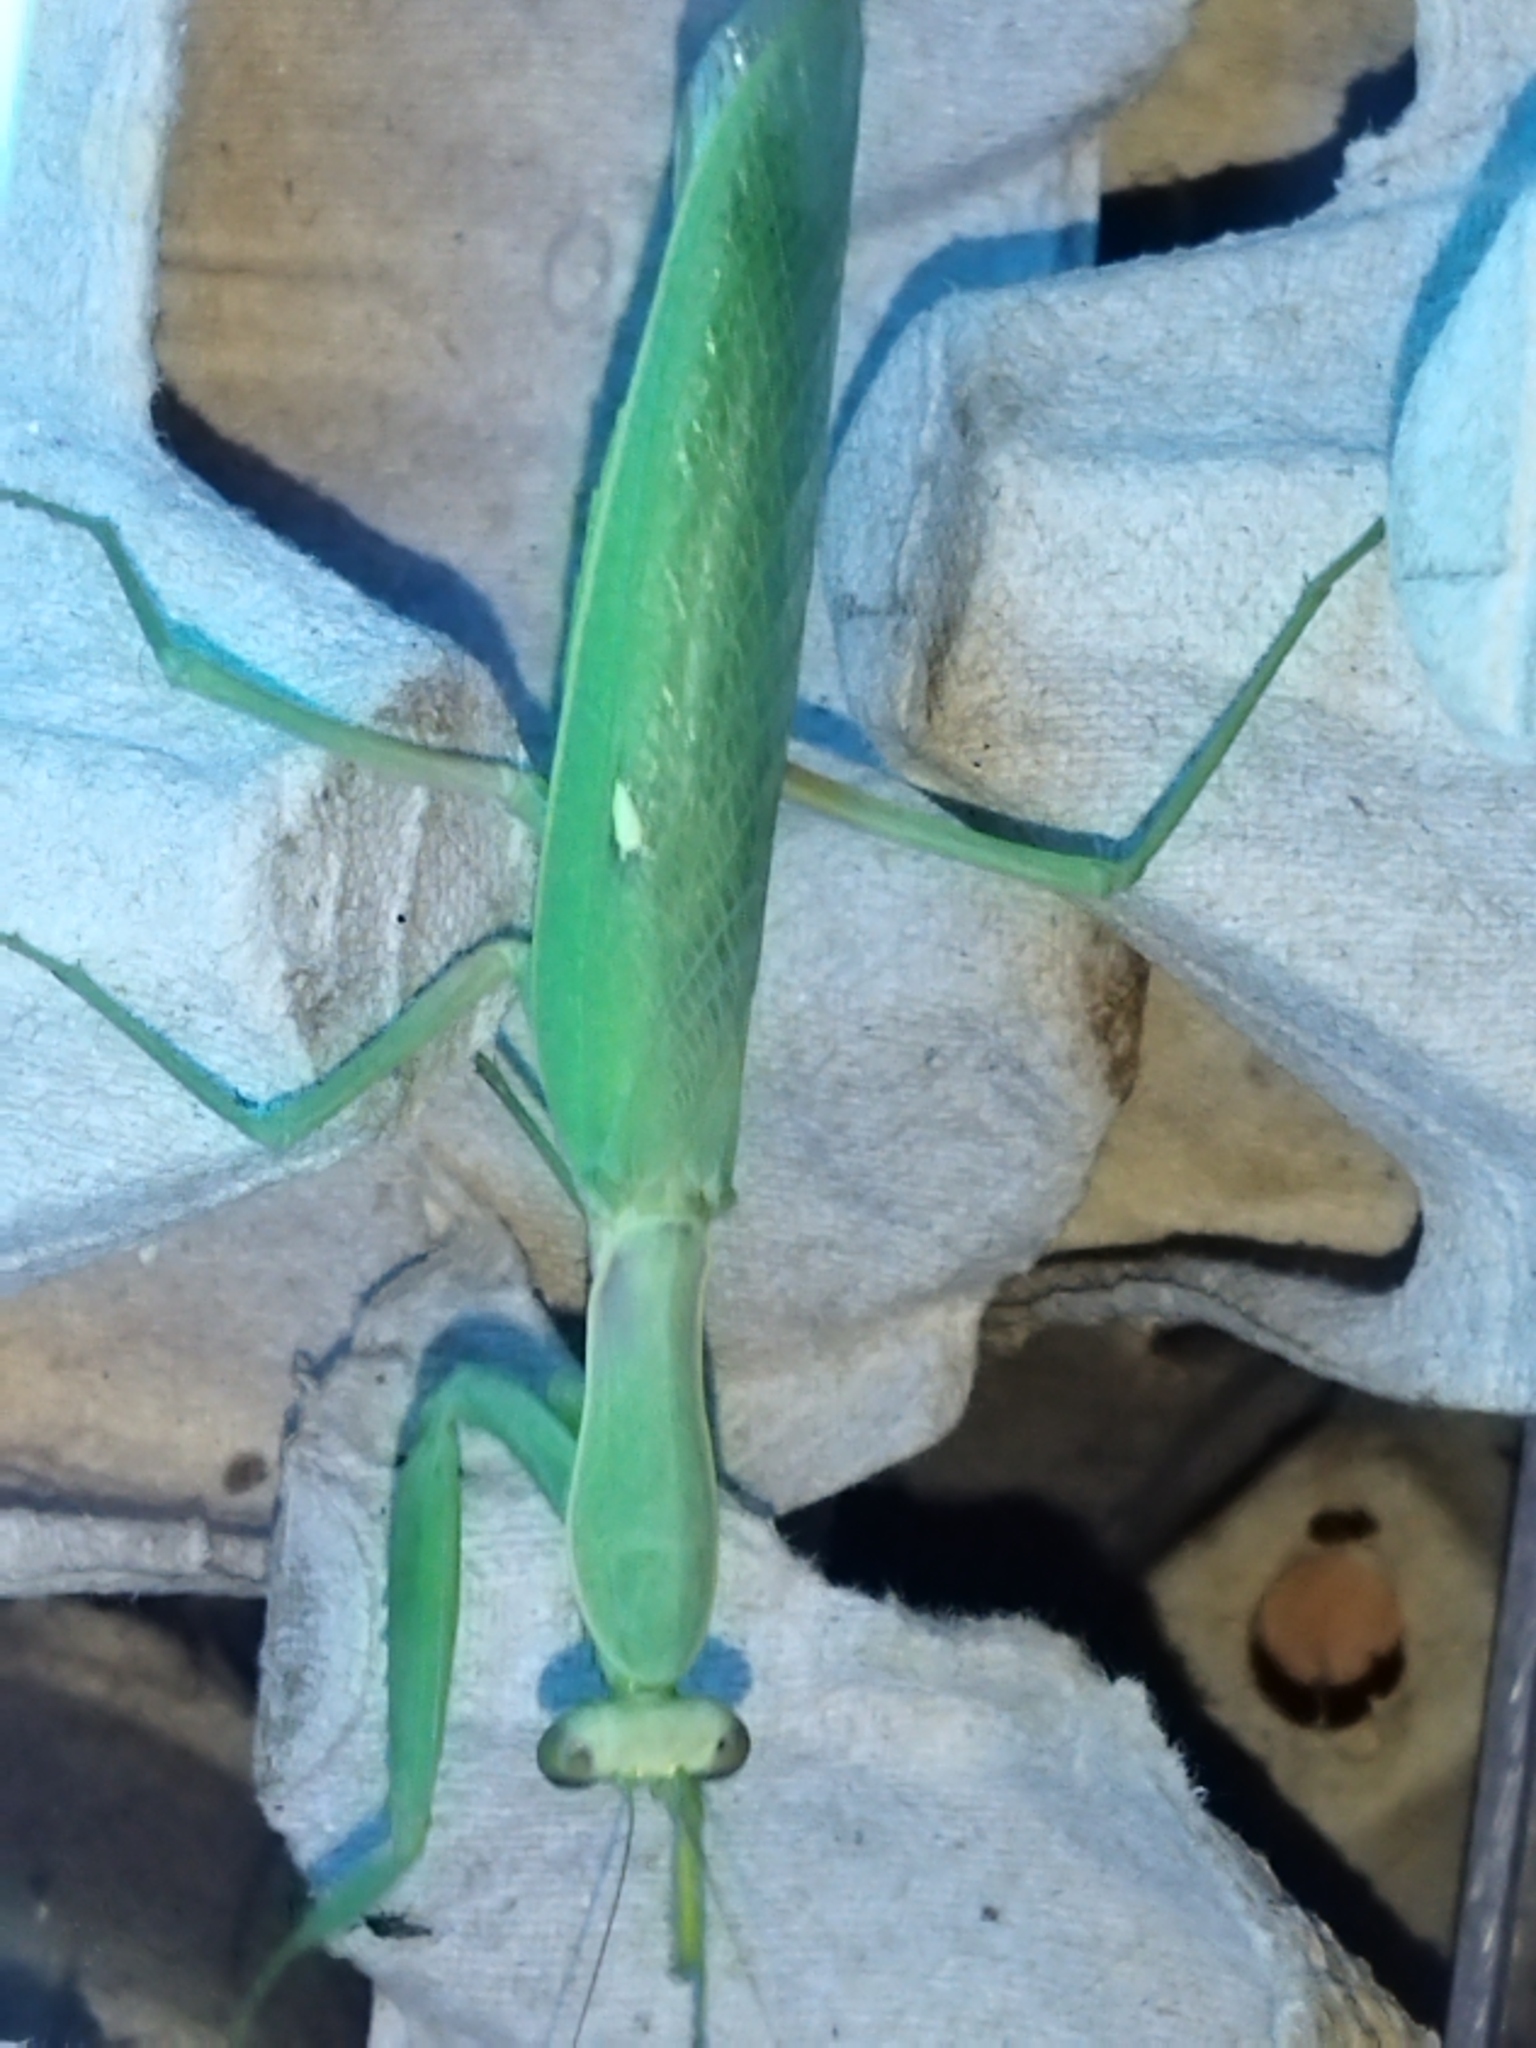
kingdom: Animalia
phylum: Arthropoda
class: Insecta
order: Mantodea
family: Mantidae
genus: Hierodula
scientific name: Hierodula transcaucasica
